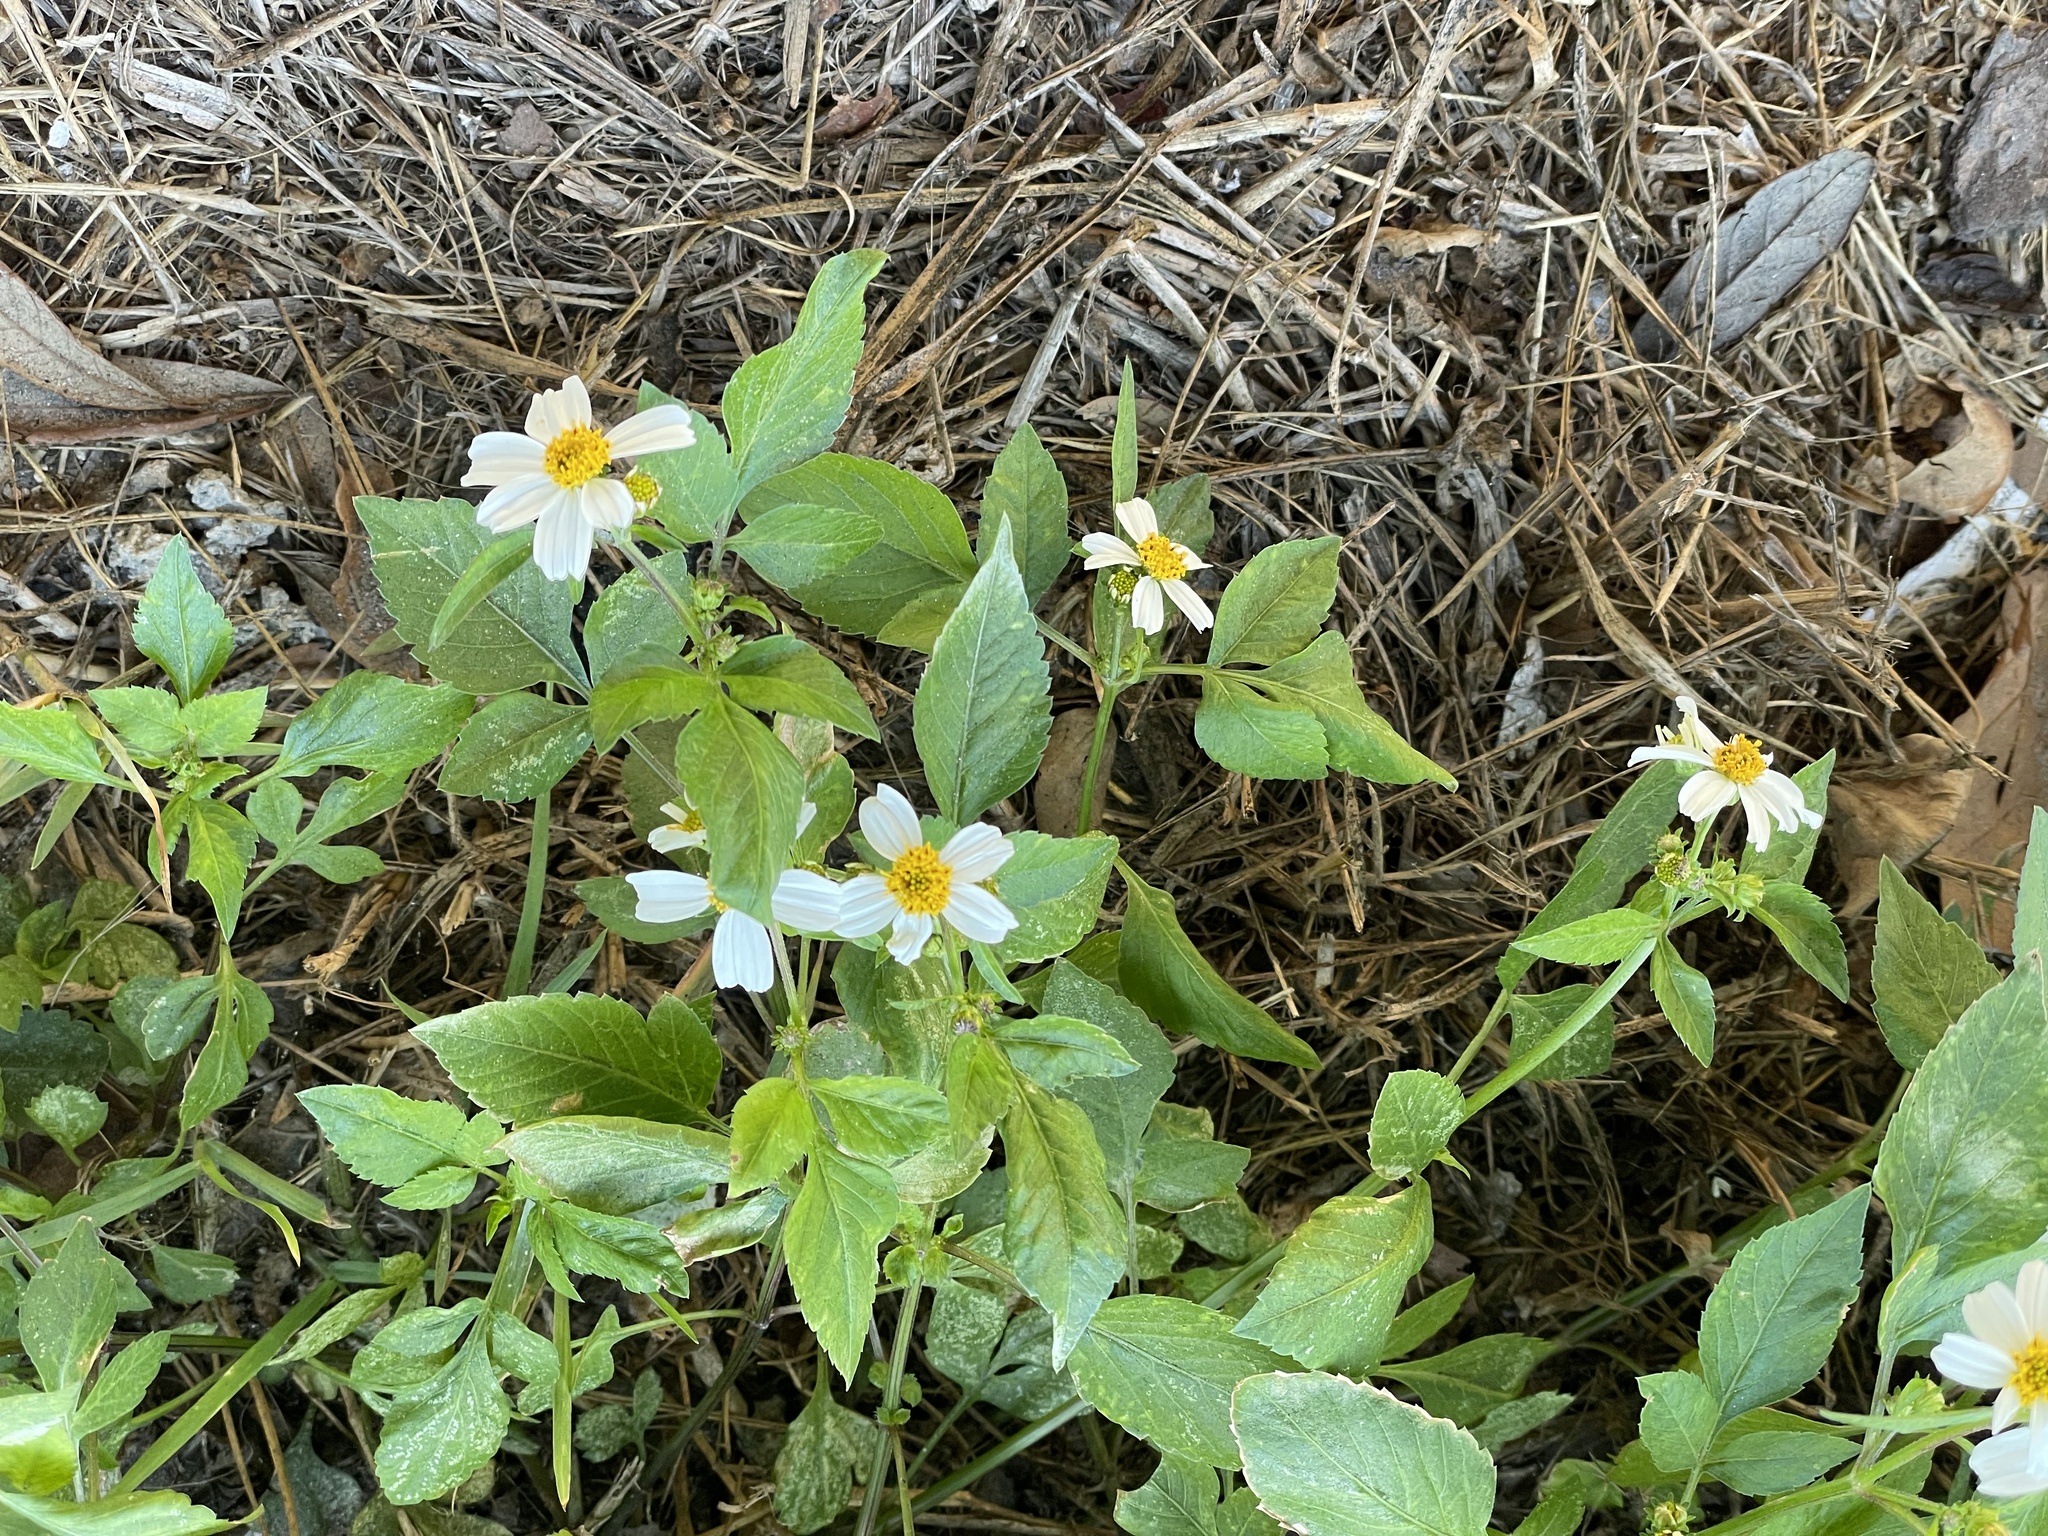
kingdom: Plantae
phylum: Tracheophyta
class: Magnoliopsida
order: Asterales
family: Asteraceae
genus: Bidens
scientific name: Bidens alba
